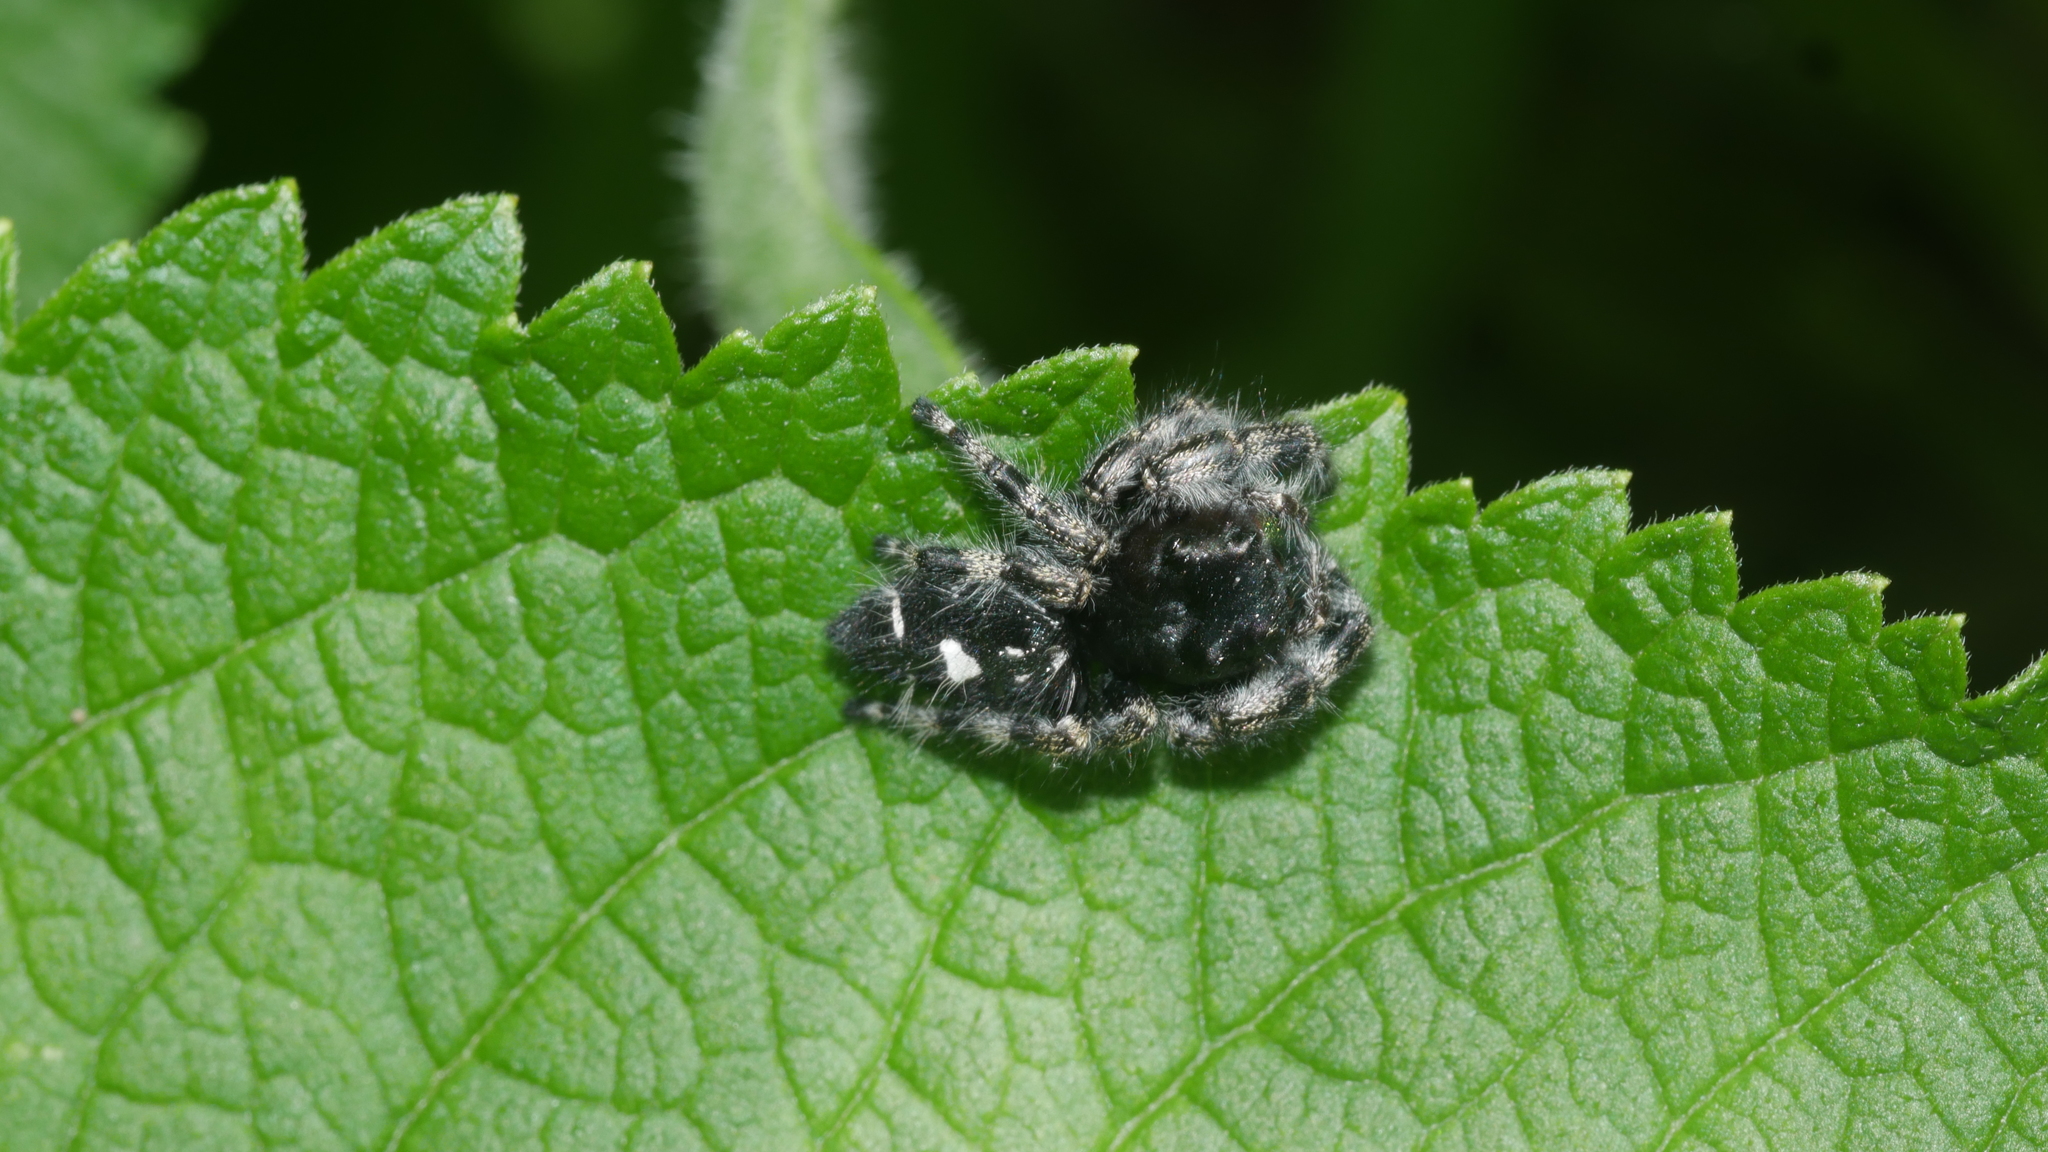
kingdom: Animalia
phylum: Arthropoda
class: Arachnida
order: Araneae
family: Salticidae
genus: Phidippus
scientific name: Phidippus audax
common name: Bold jumper
